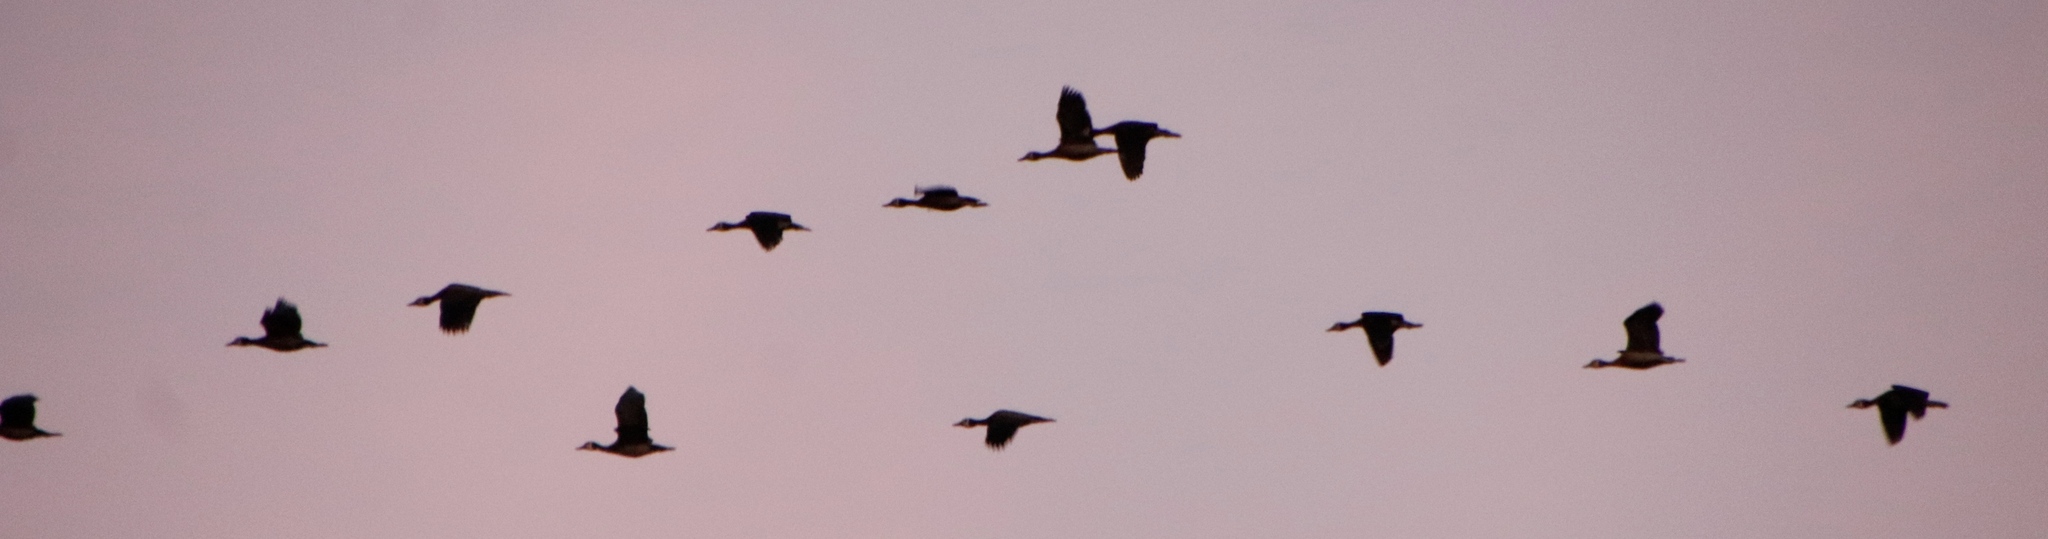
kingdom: Animalia
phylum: Chordata
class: Aves
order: Anseriformes
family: Anatidae
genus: Dendrocygna
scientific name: Dendrocygna viduata
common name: White-faced whistling duck
